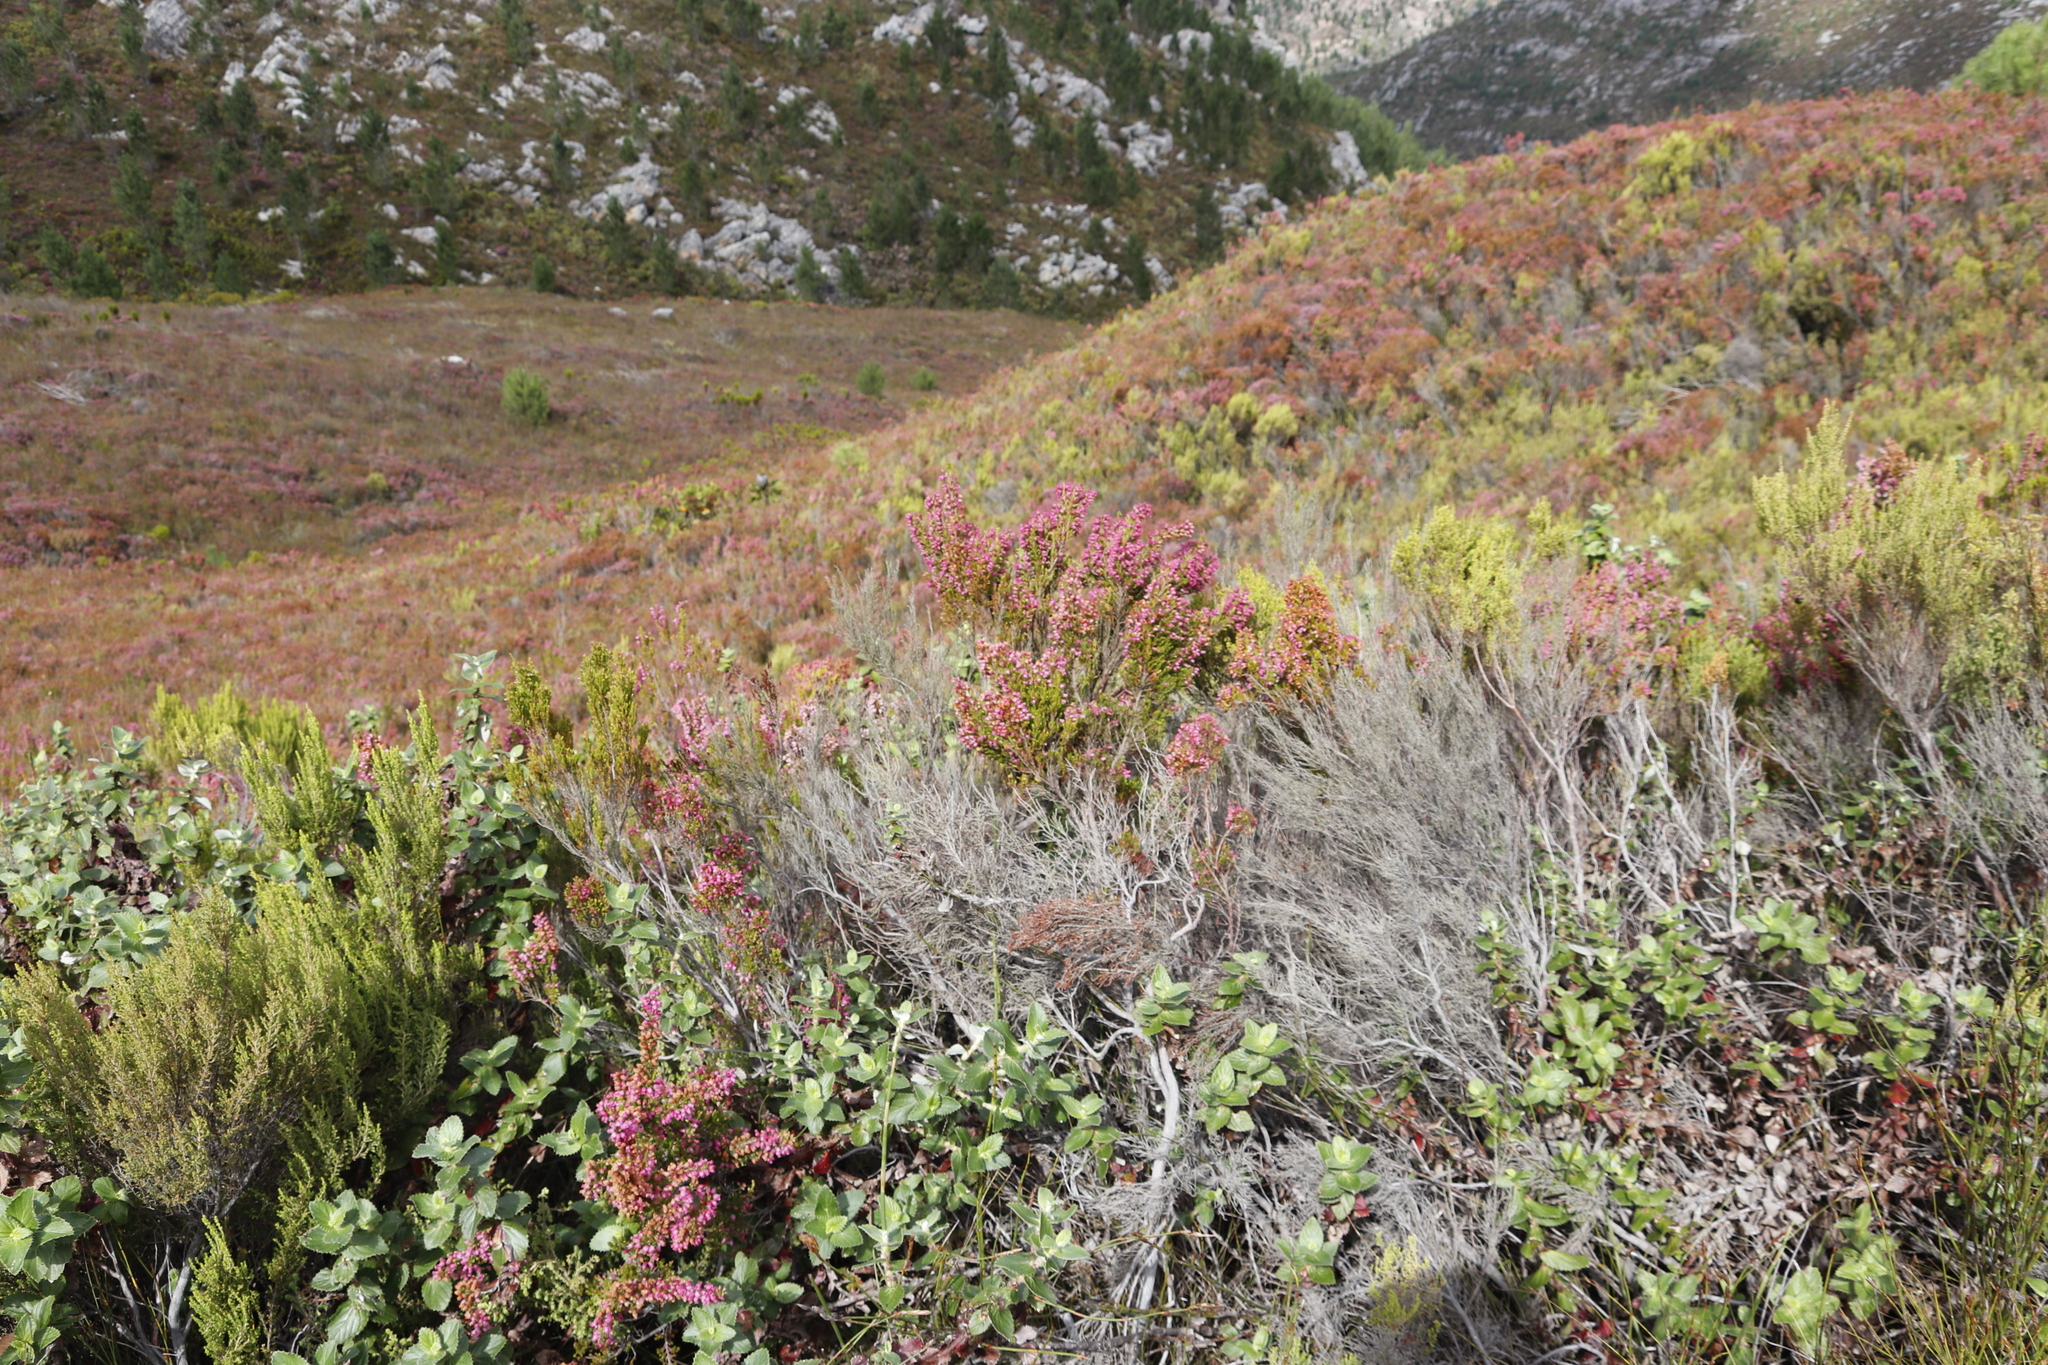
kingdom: Plantae
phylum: Tracheophyta
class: Magnoliopsida
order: Ericales
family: Ericaceae
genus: Erica
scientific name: Erica sitiens
